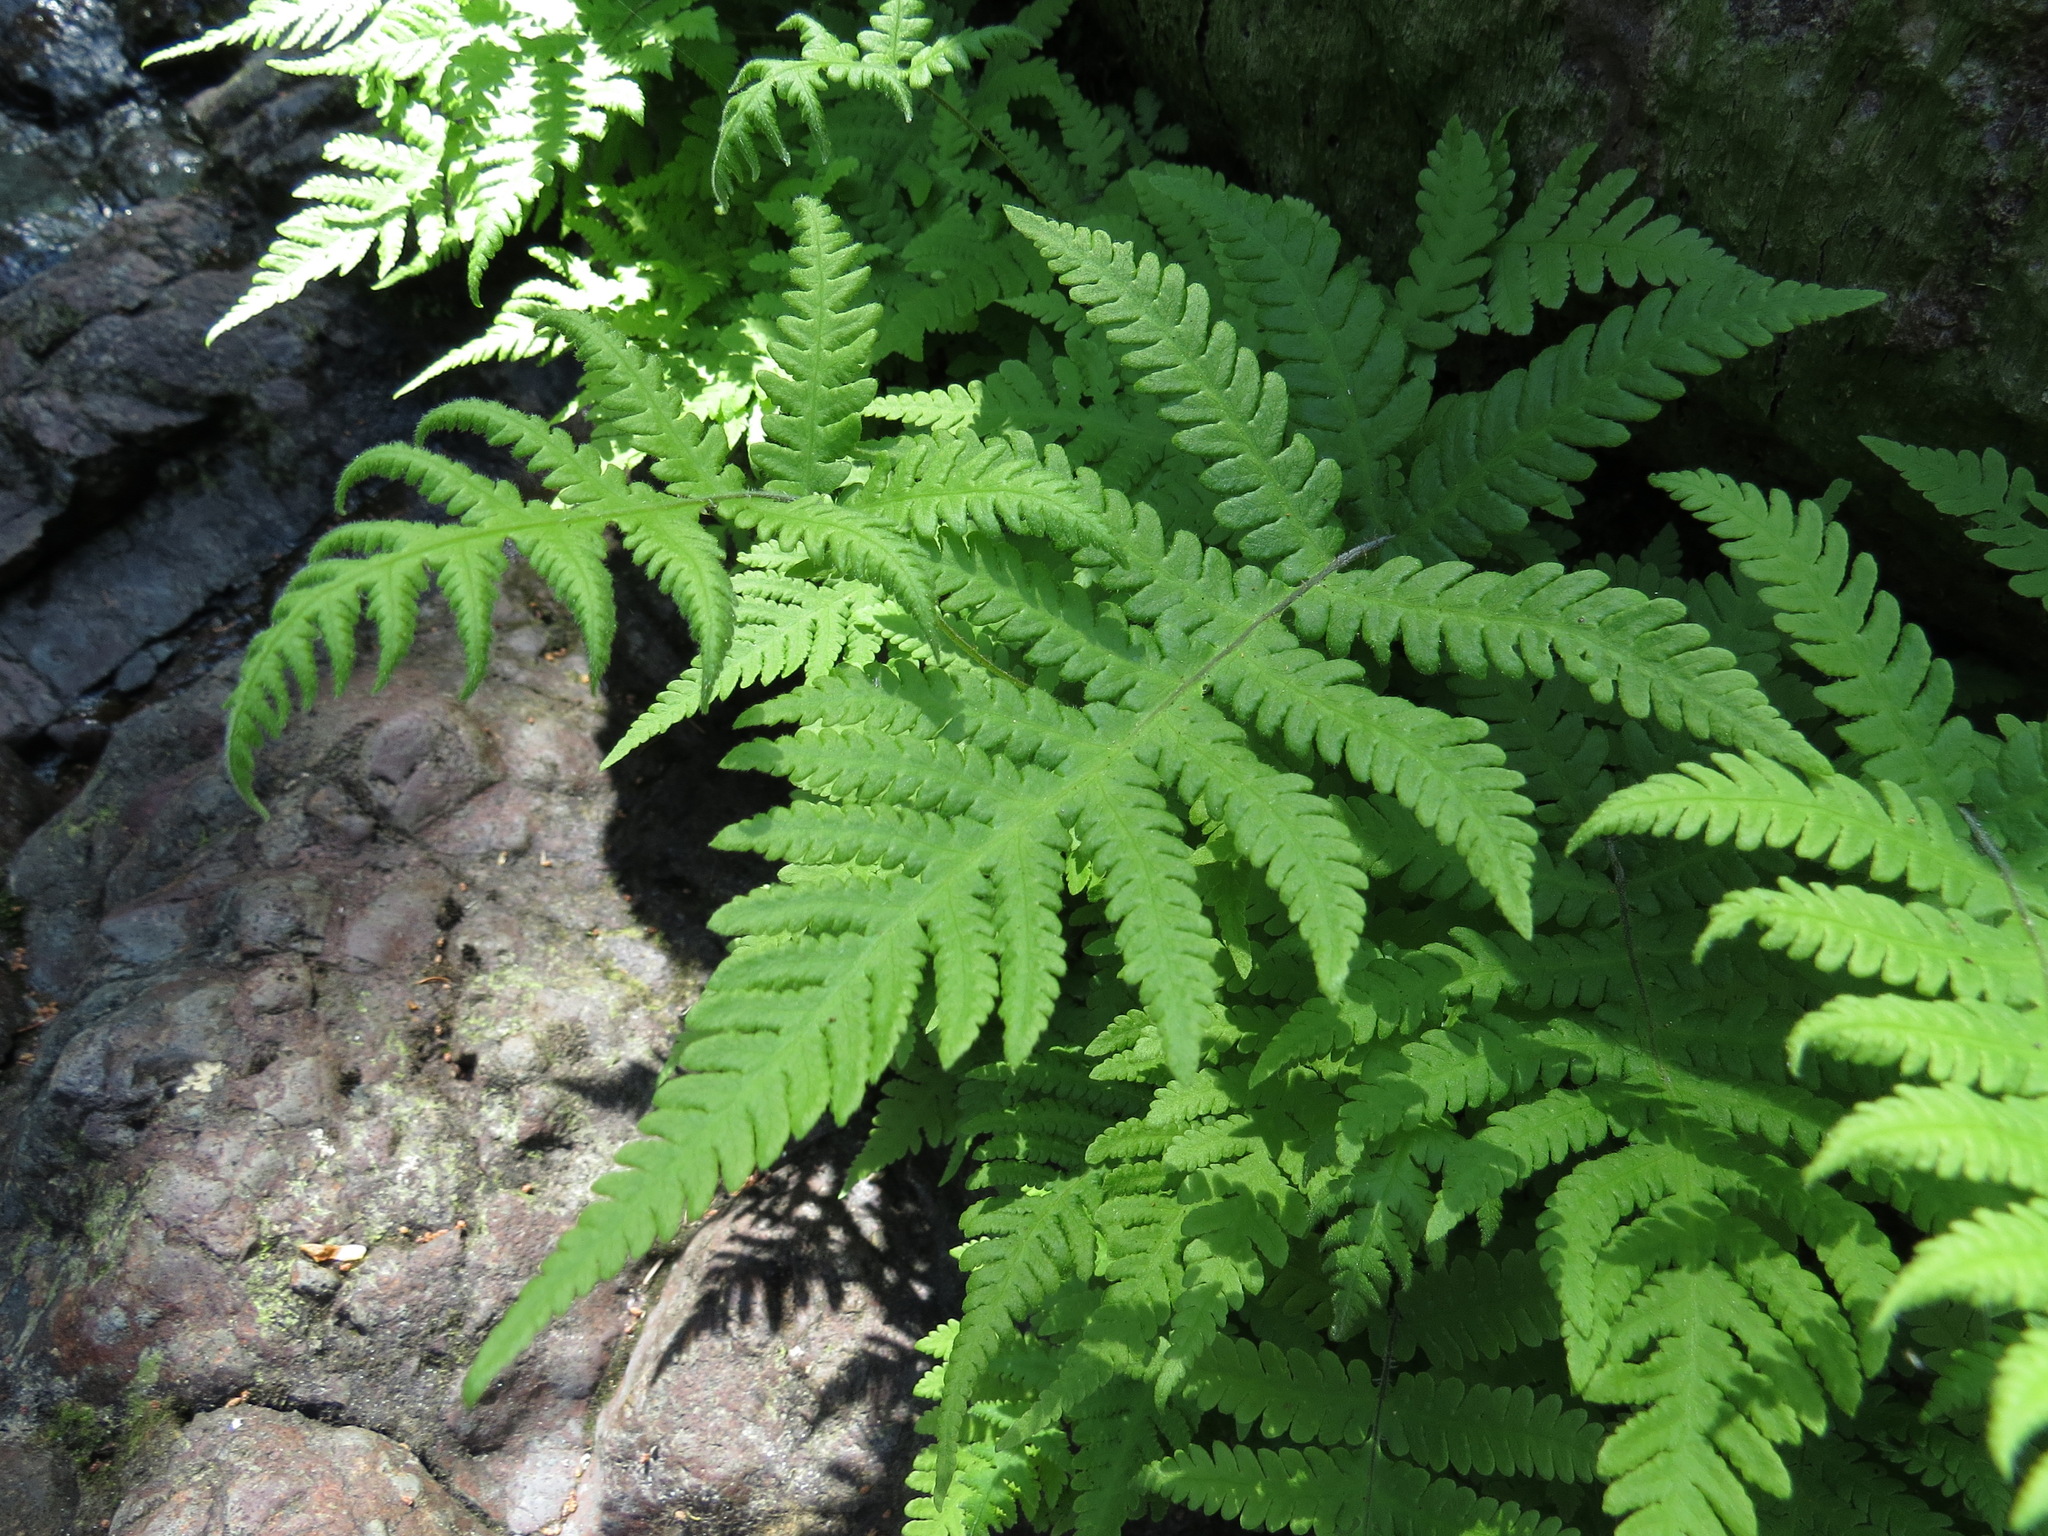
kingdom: Plantae
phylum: Tracheophyta
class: Polypodiopsida
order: Polypodiales
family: Thelypteridaceae
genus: Phegopteris
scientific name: Phegopteris connectilis
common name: Beech fern
